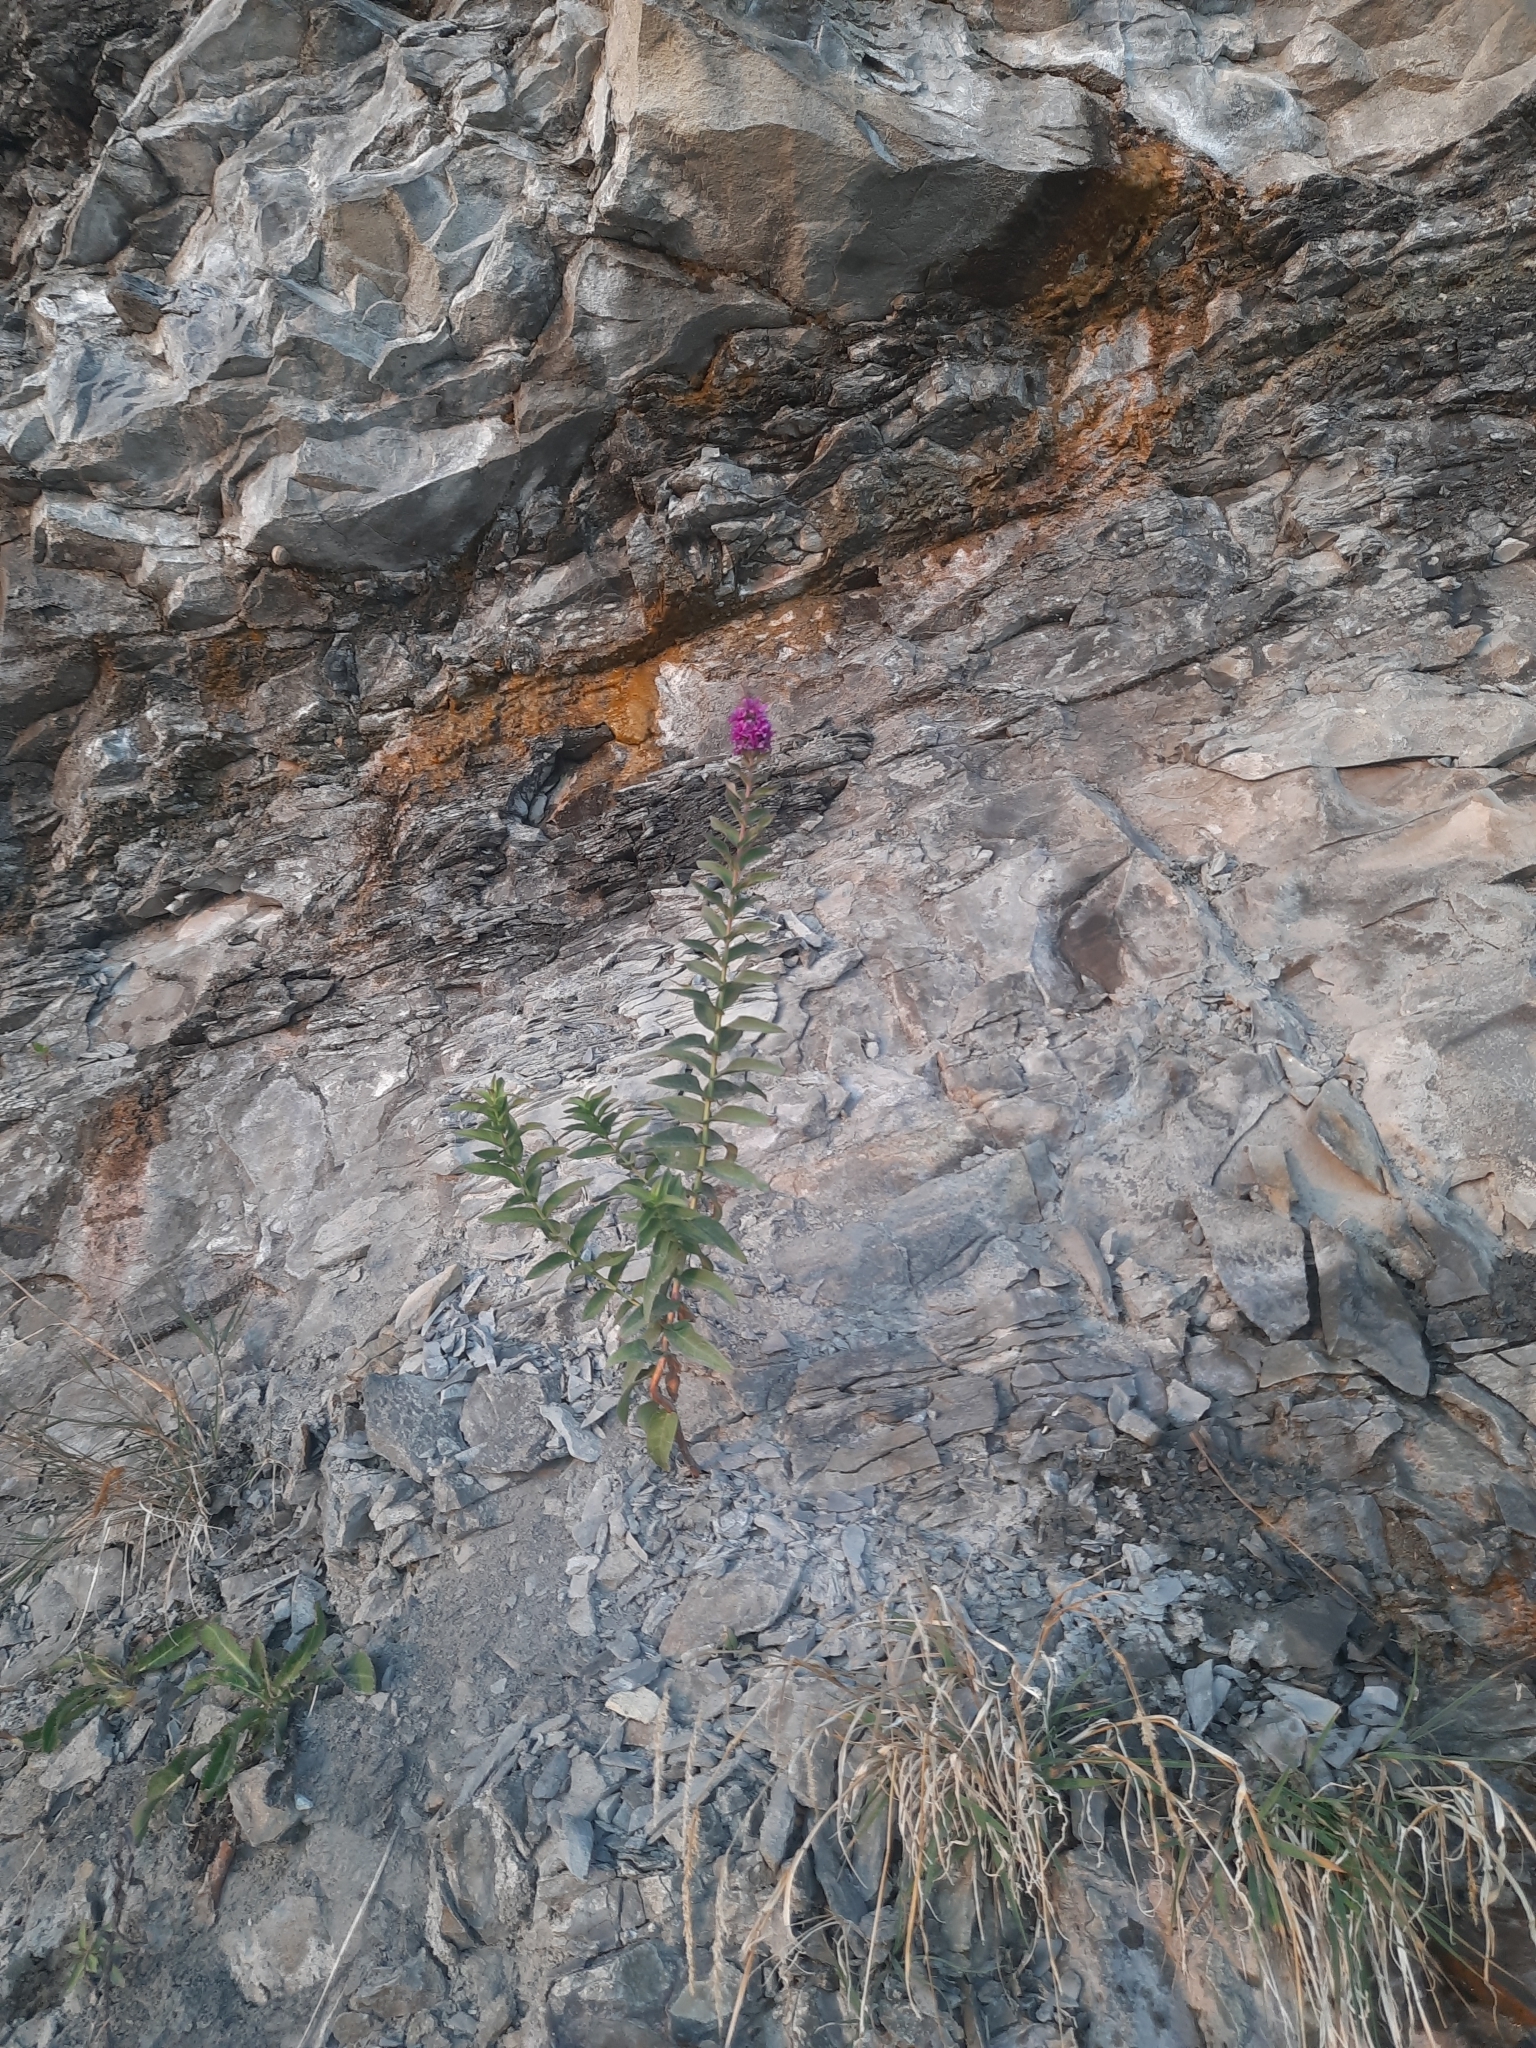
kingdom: Plantae
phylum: Tracheophyta
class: Magnoliopsida
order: Myrtales
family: Lythraceae
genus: Lythrum
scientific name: Lythrum salicaria
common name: Purple loosestrife
